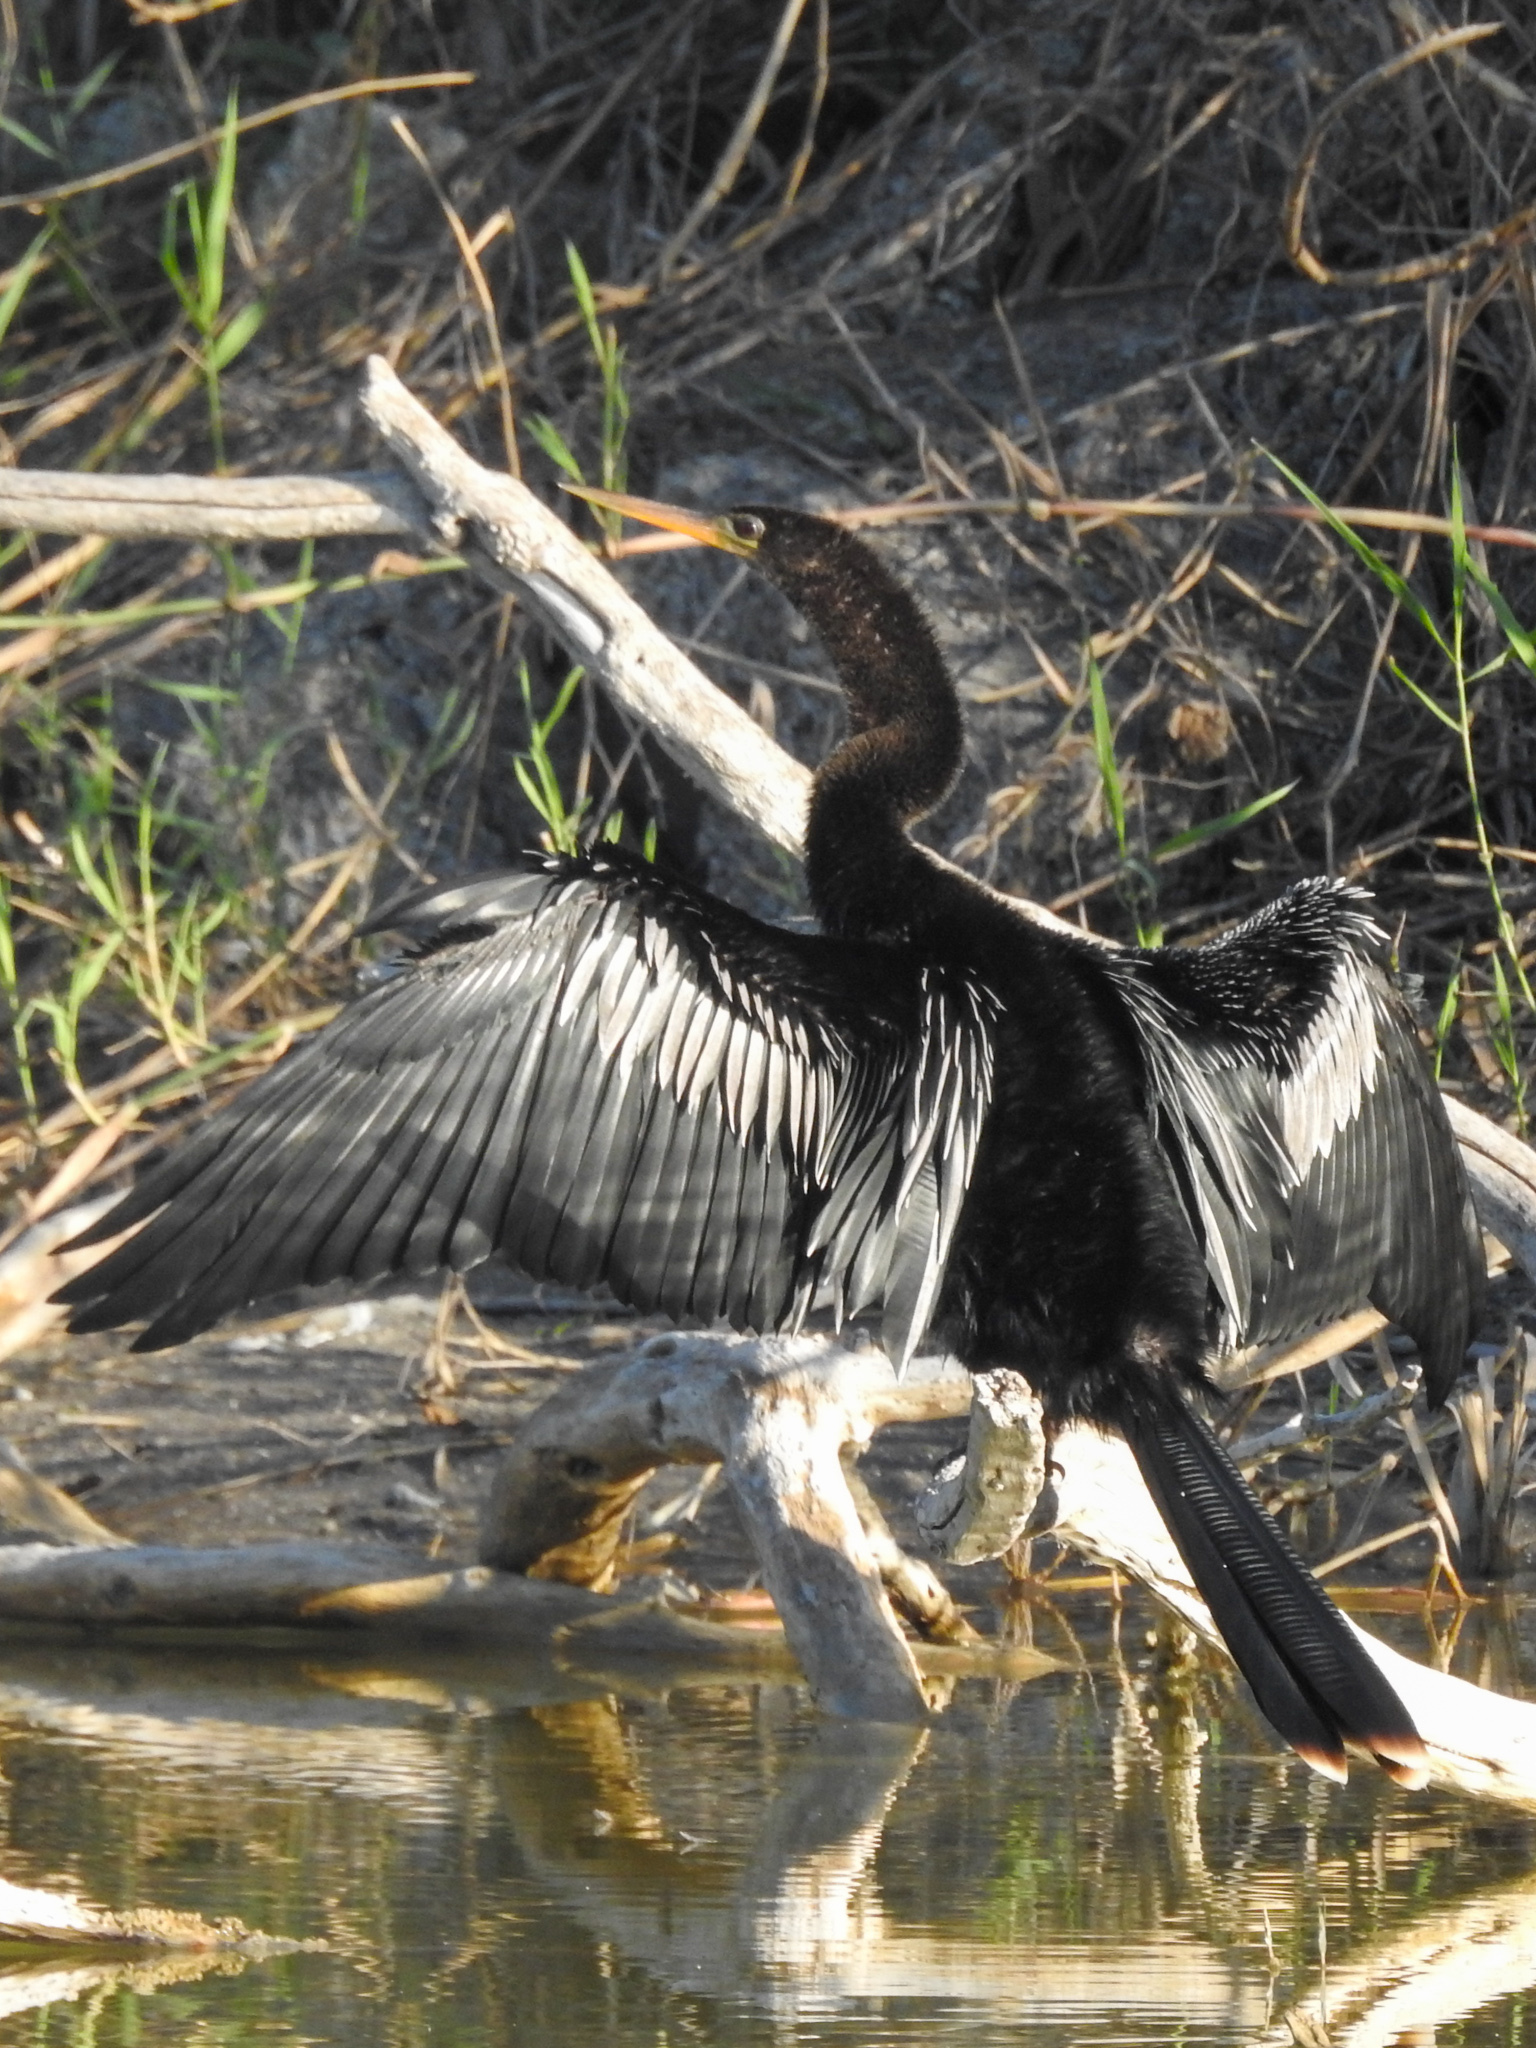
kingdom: Animalia
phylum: Chordata
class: Aves
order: Suliformes
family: Anhingidae
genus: Anhinga
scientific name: Anhinga anhinga
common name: Anhinga
